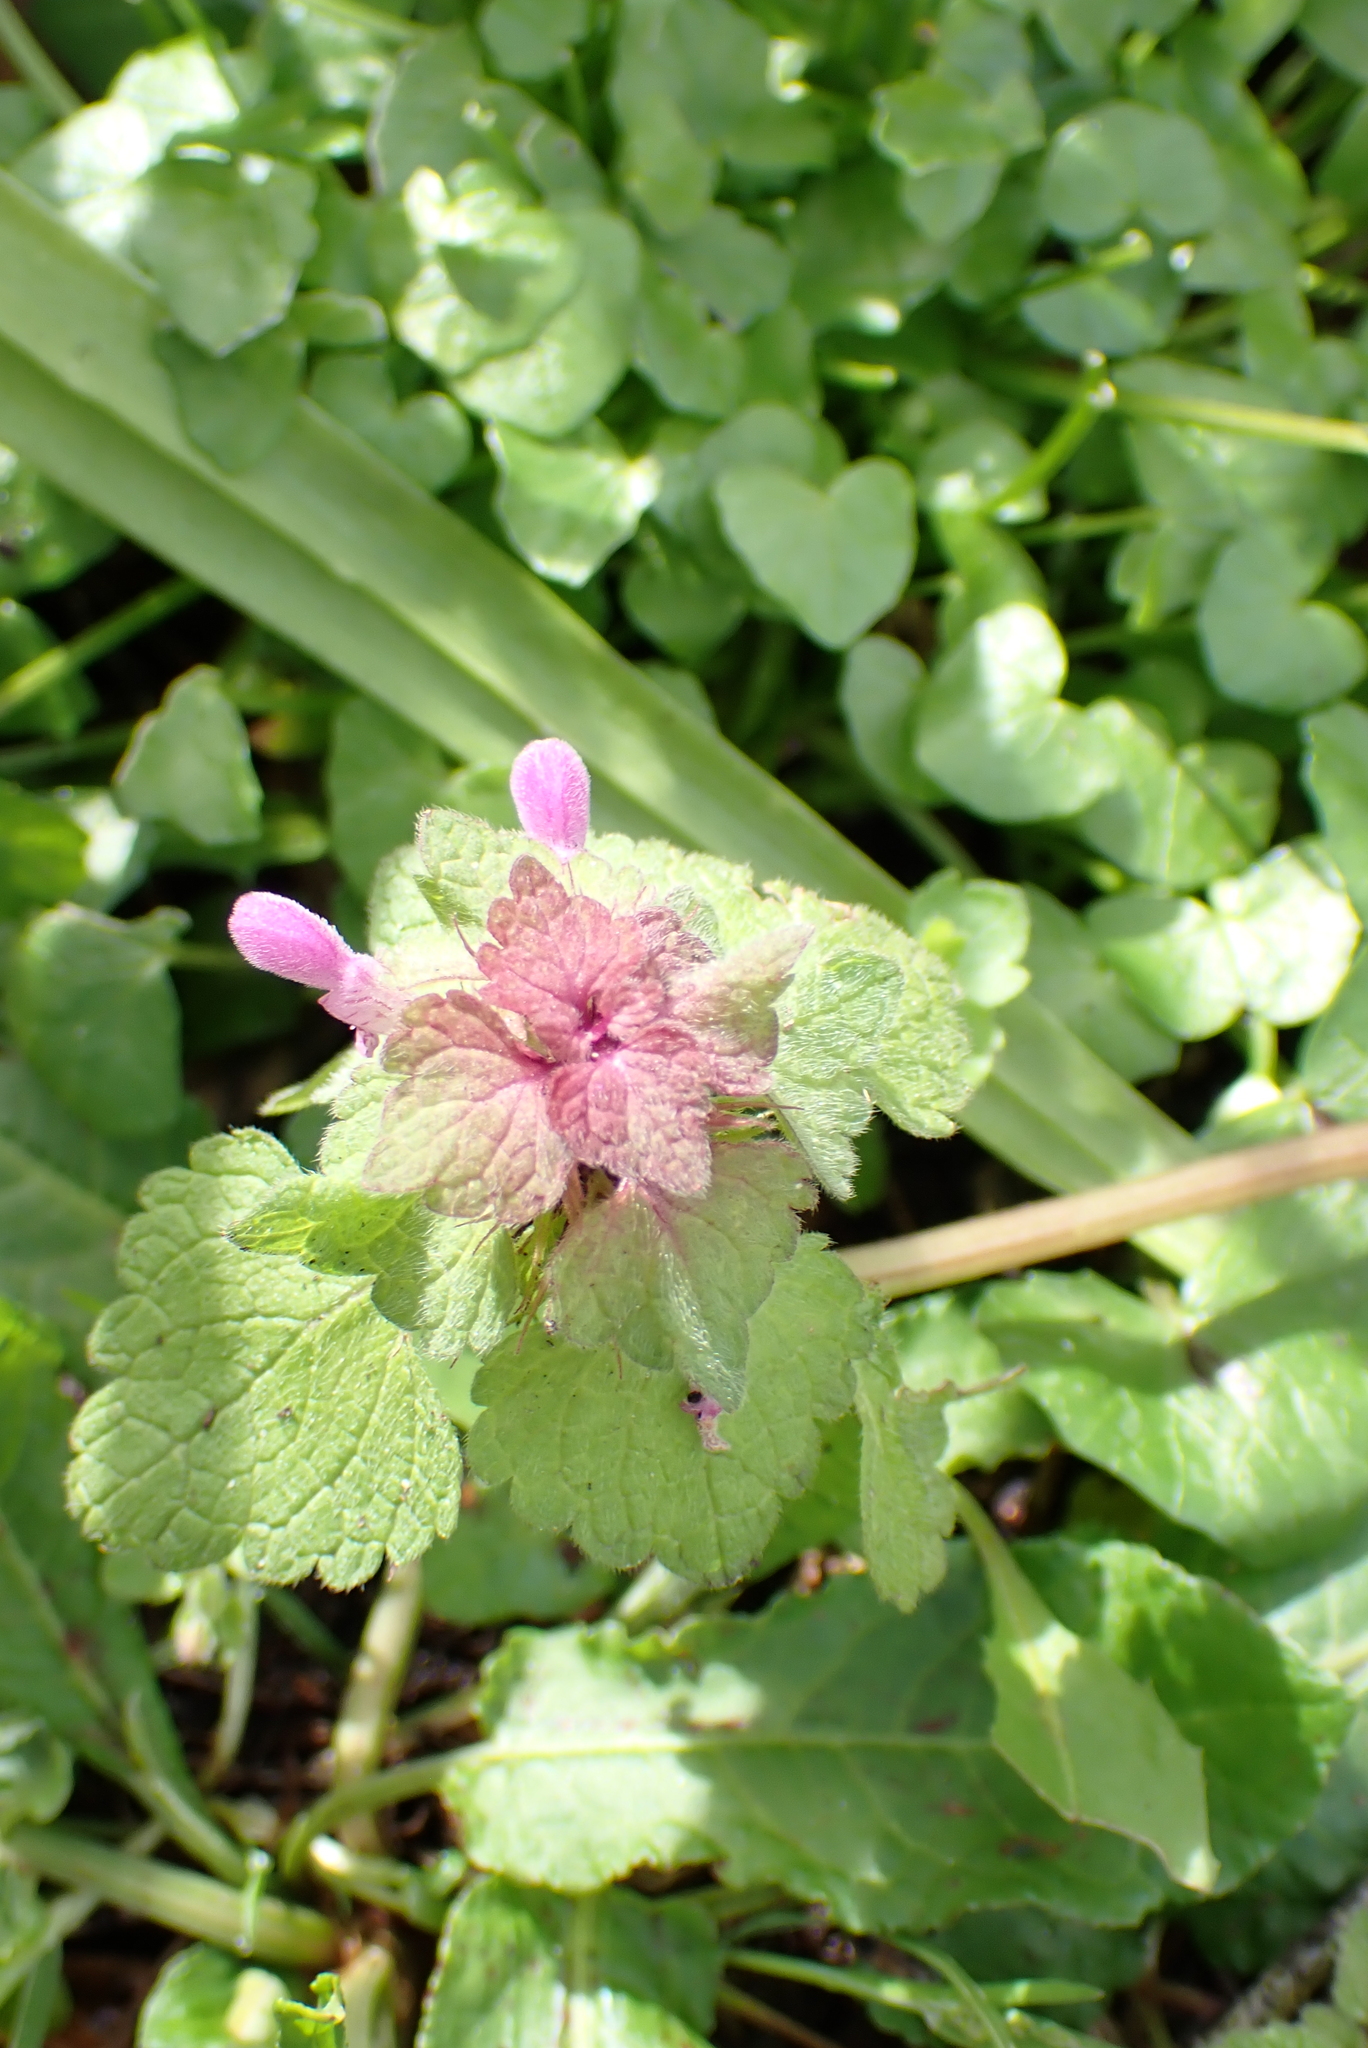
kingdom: Plantae
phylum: Tracheophyta
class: Magnoliopsida
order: Lamiales
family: Lamiaceae
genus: Lamium
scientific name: Lamium purpureum
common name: Red dead-nettle
